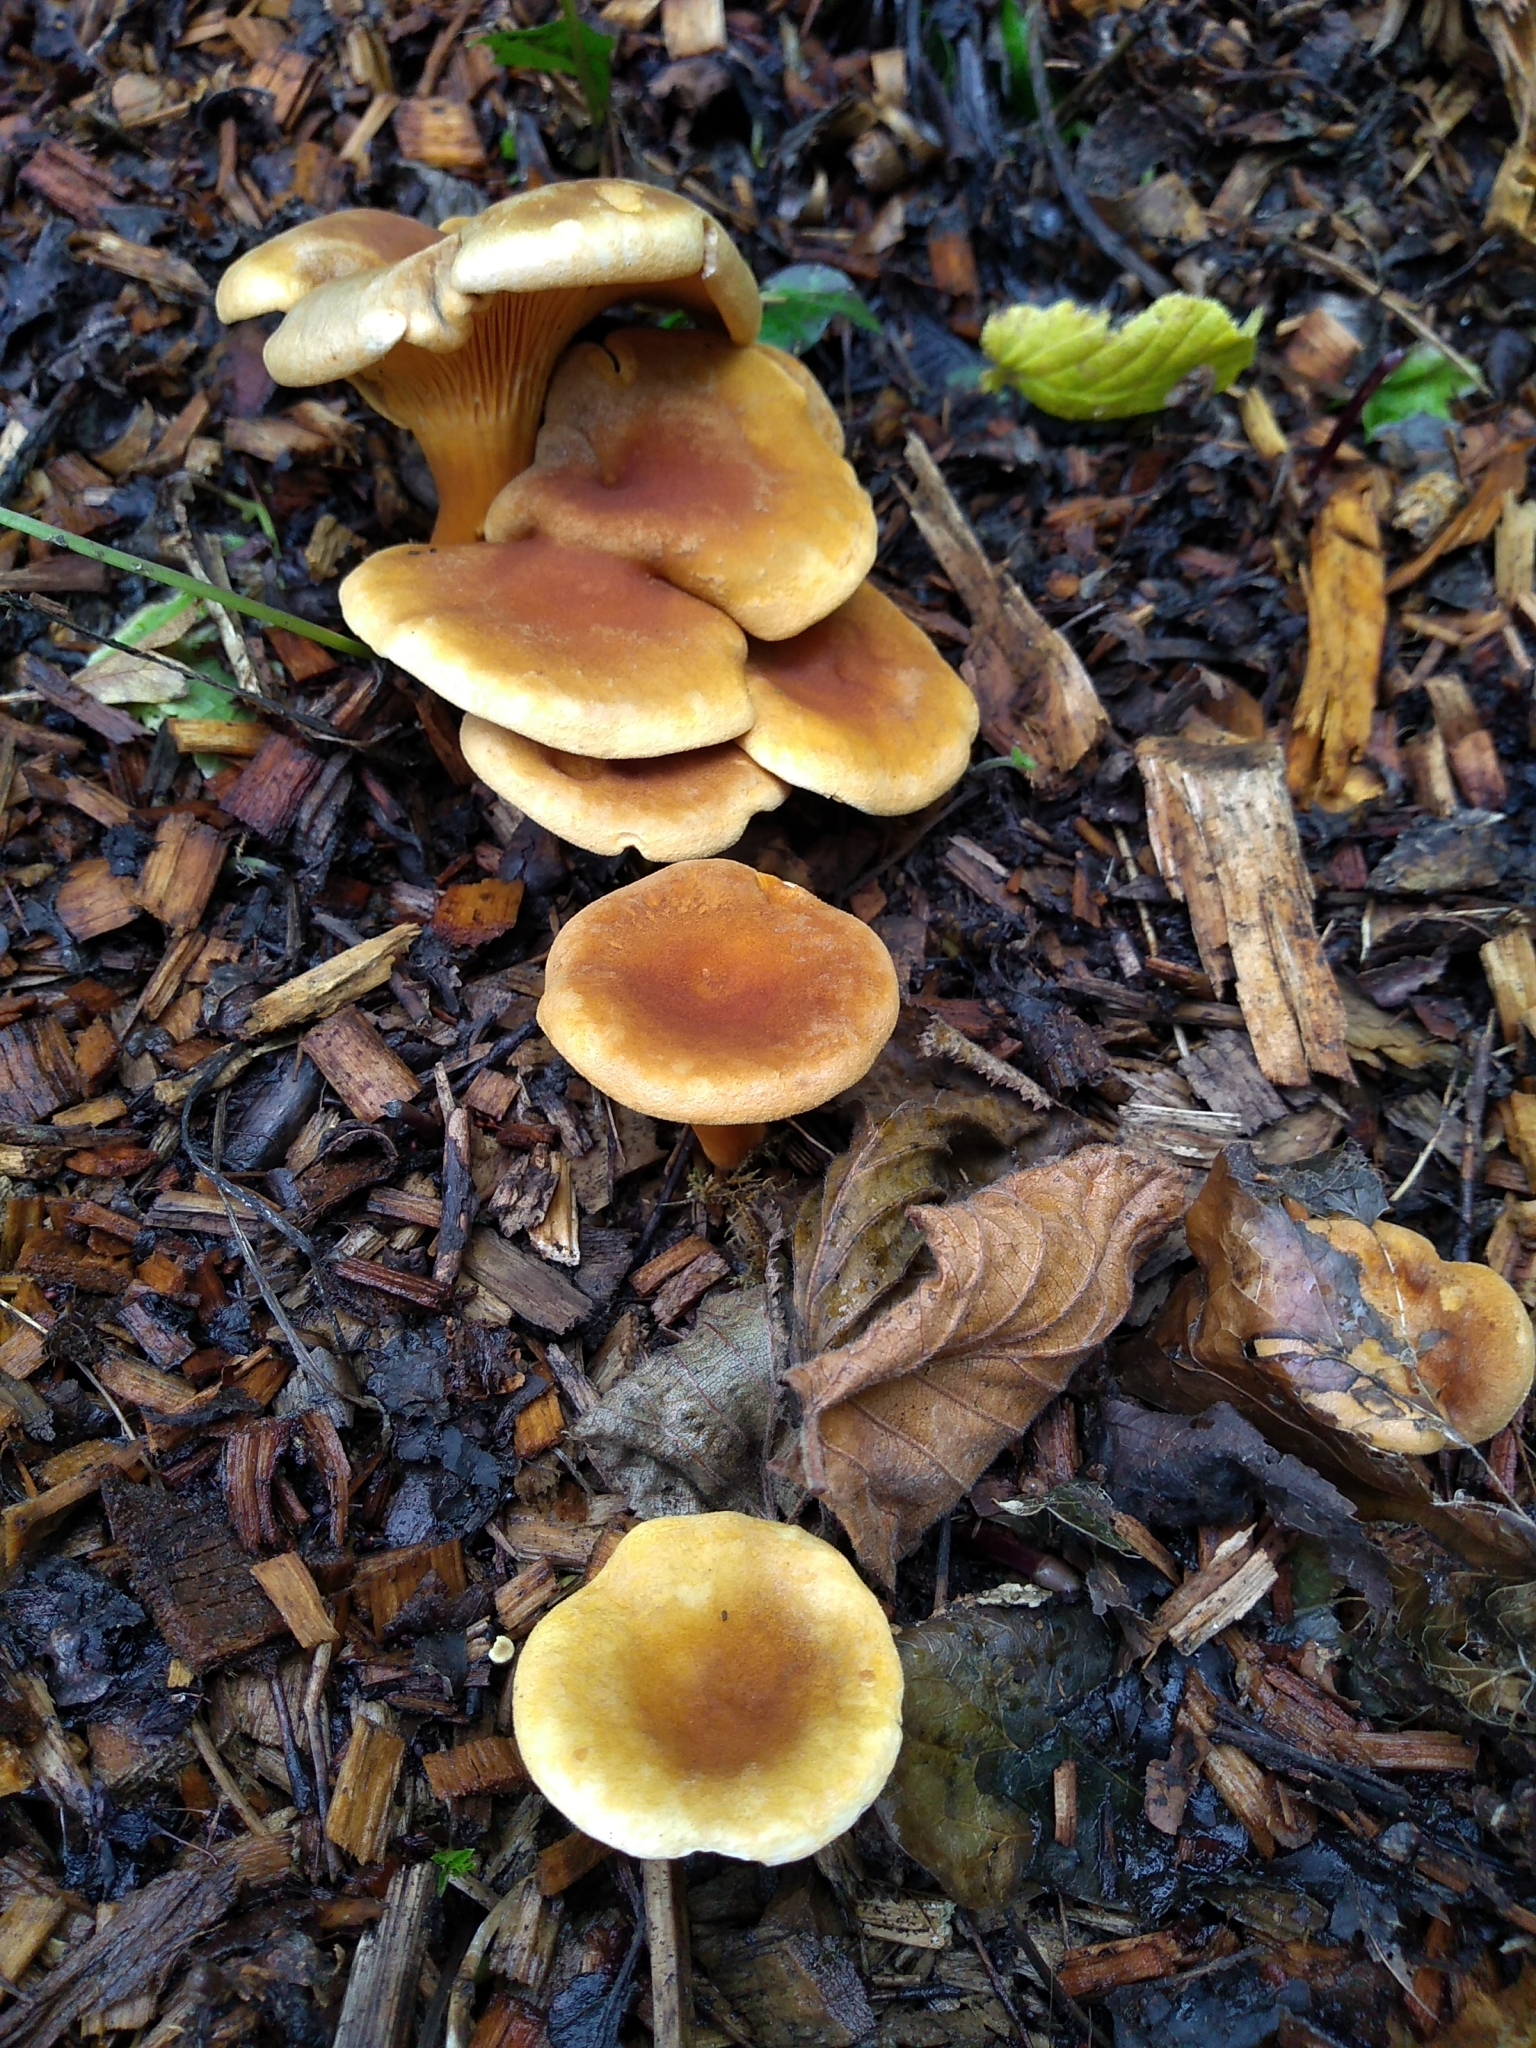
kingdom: Fungi
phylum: Basidiomycota
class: Agaricomycetes
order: Boletales
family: Hygrophoropsidaceae
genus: Hygrophoropsis
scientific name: Hygrophoropsis rufa
